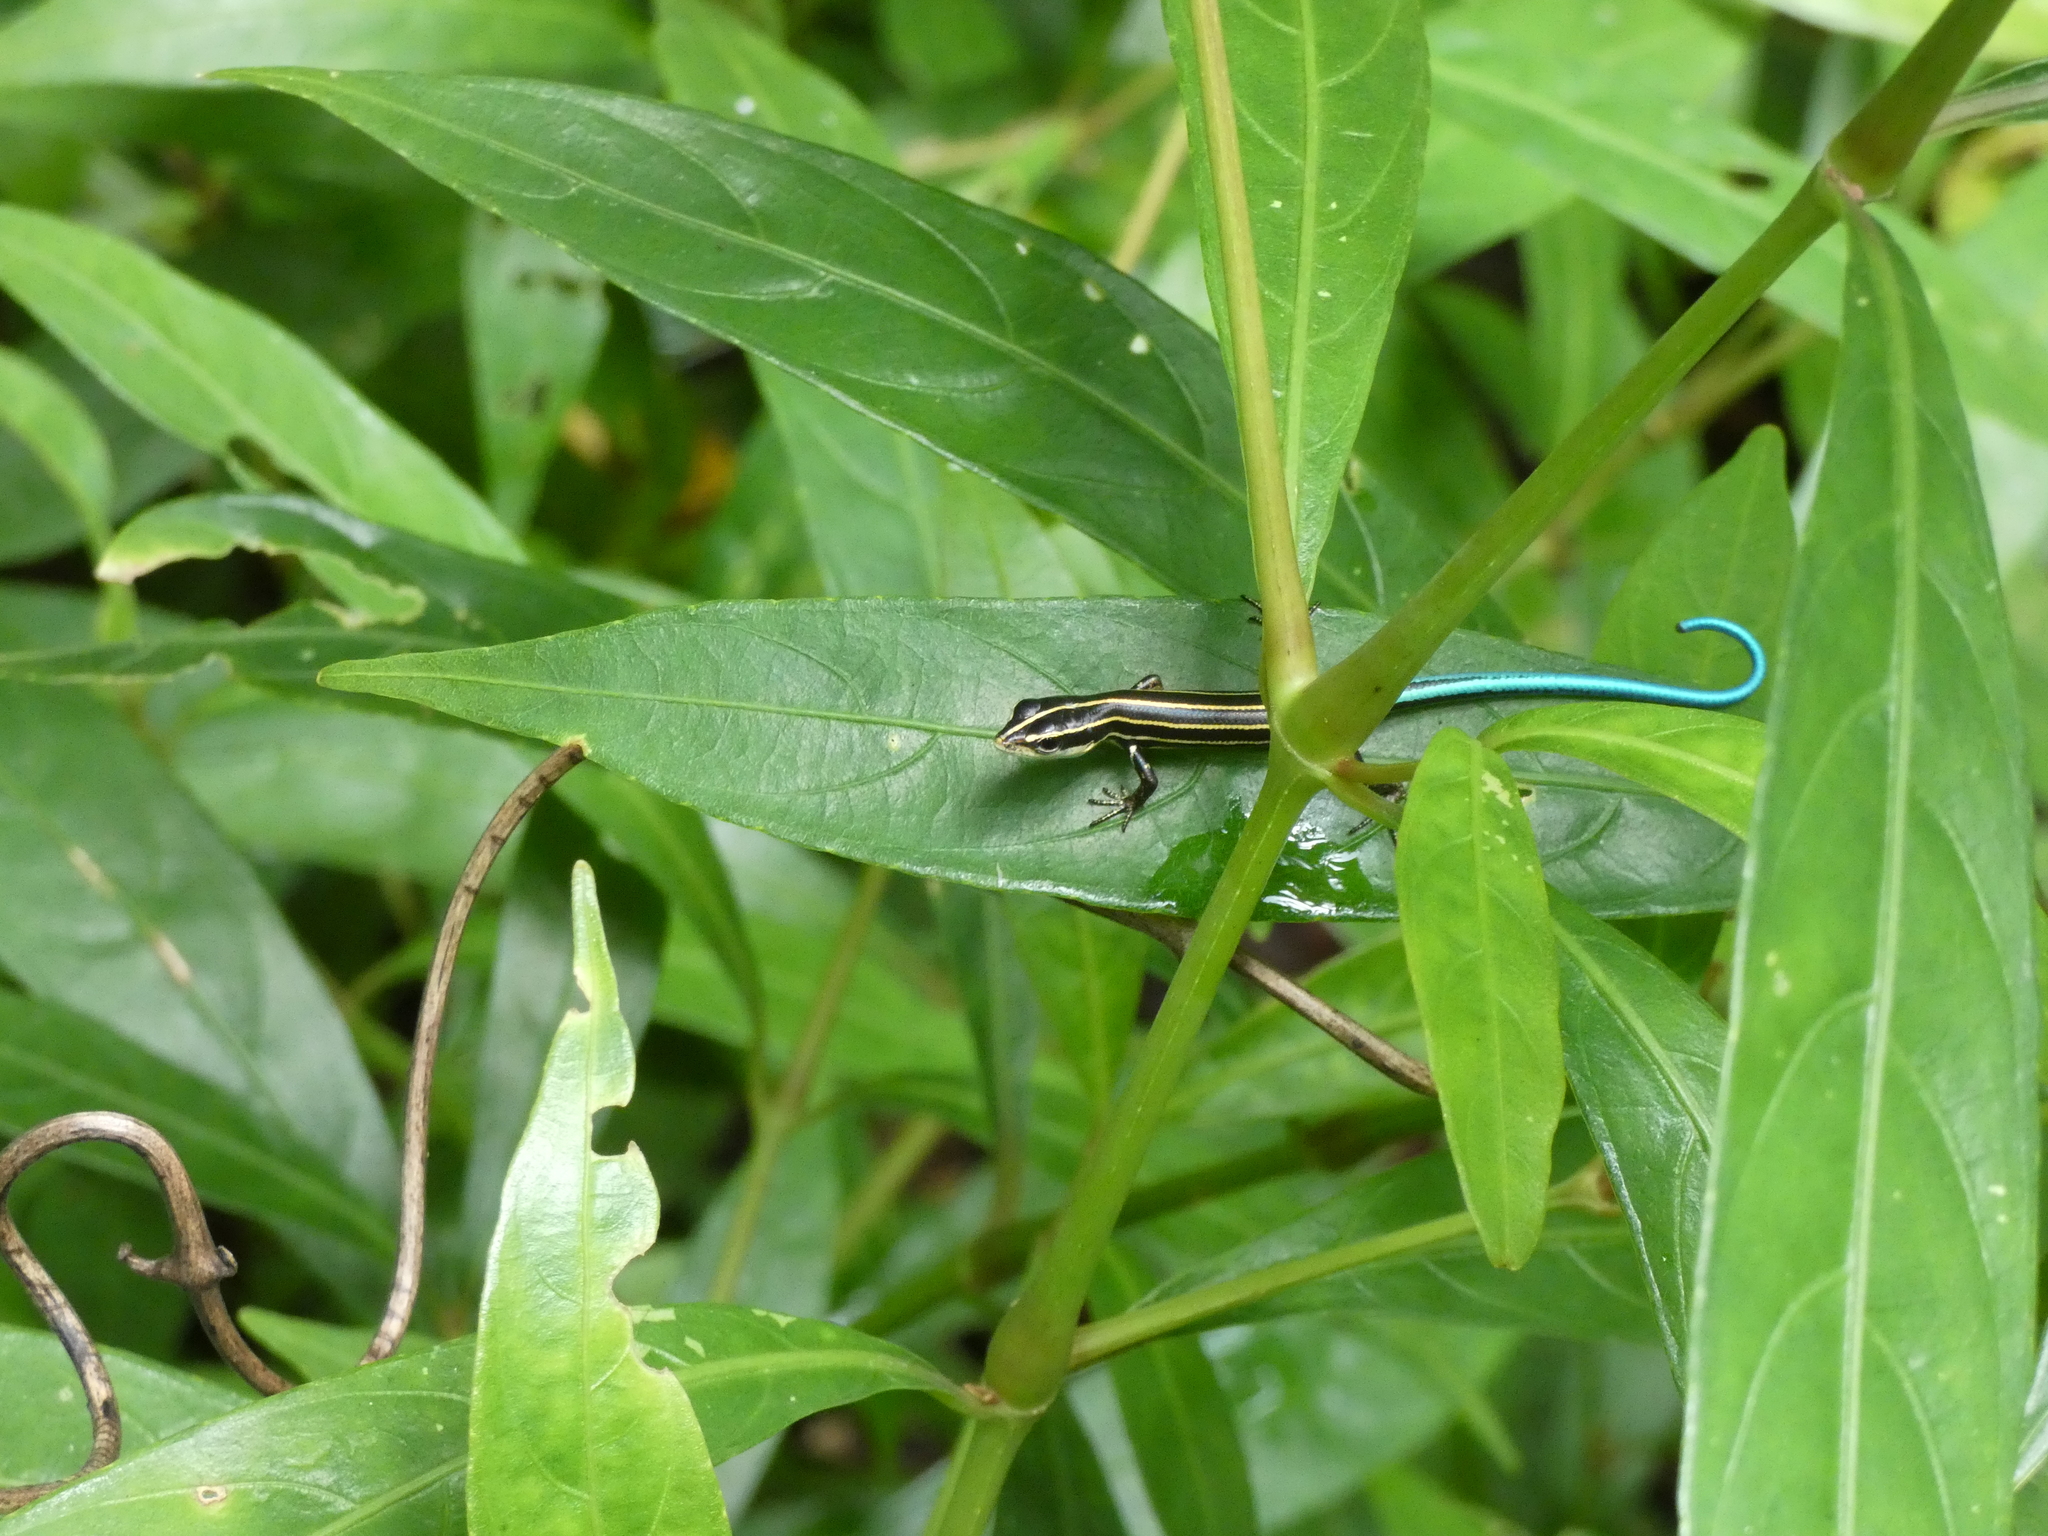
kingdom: Animalia
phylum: Chordata
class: Squamata
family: Scincidae
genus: Emoia
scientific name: Emoia caeruleocauda
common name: Pacific bluetail skink
